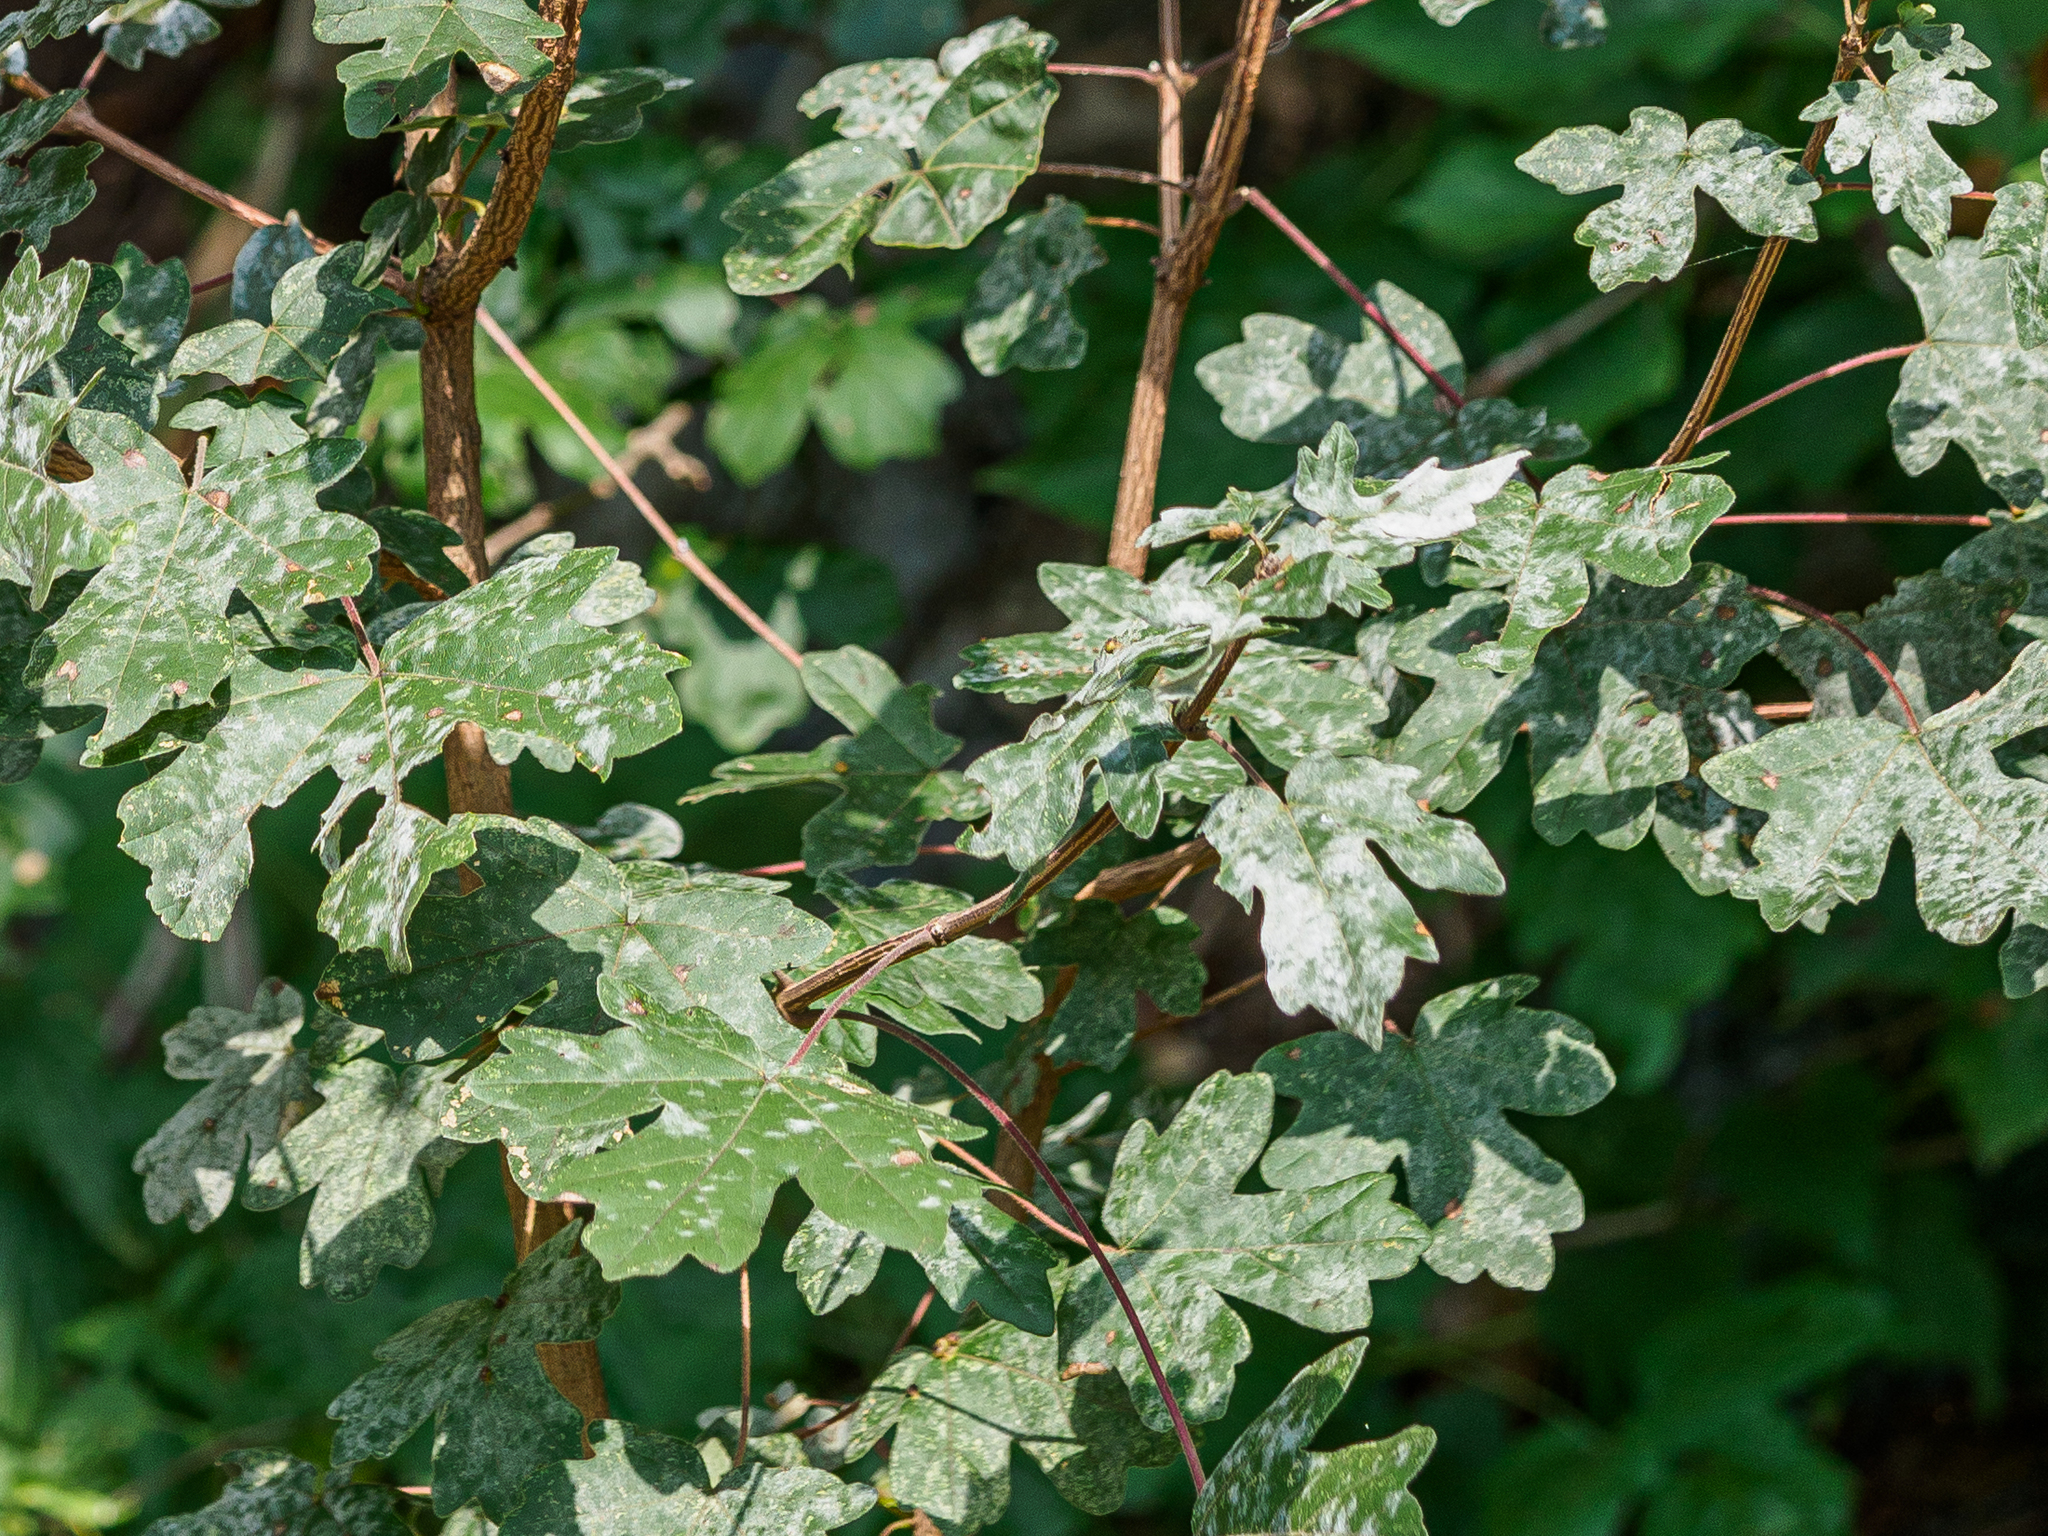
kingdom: Fungi
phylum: Ascomycota
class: Leotiomycetes
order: Helotiales
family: Erysiphaceae
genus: Sawadaea
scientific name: Sawadaea bicornis
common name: Maple mildew
